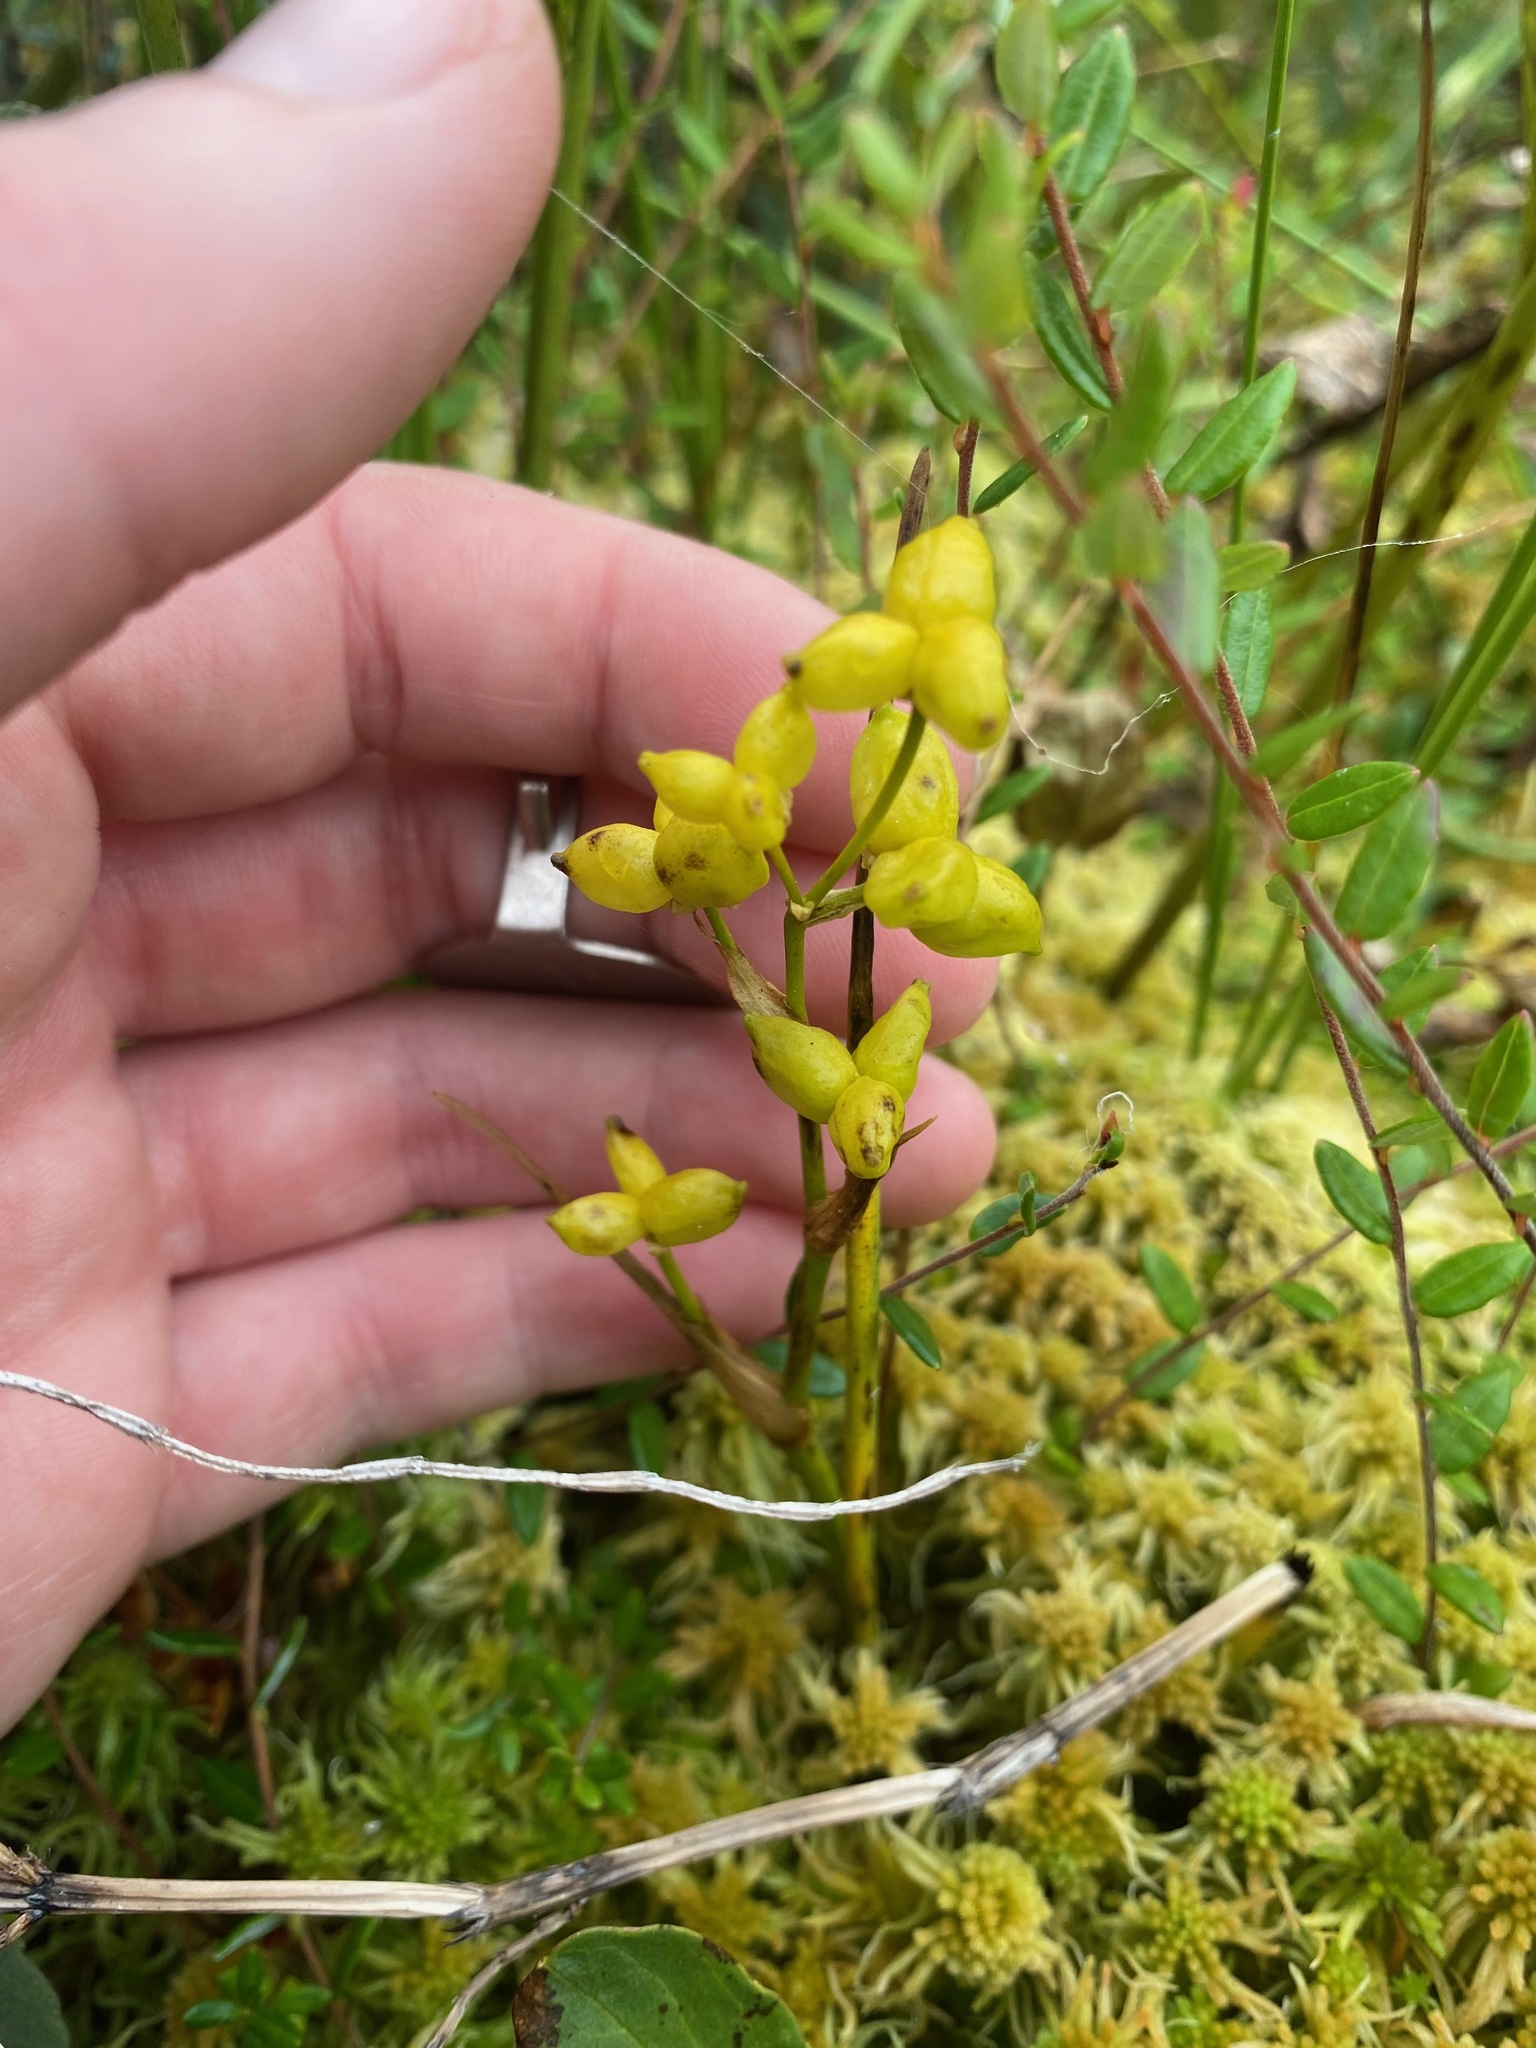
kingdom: Plantae
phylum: Tracheophyta
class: Liliopsida
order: Alismatales
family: Scheuchzeriaceae
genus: Scheuchzeria
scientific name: Scheuchzeria palustris
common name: Rannoch-rush
